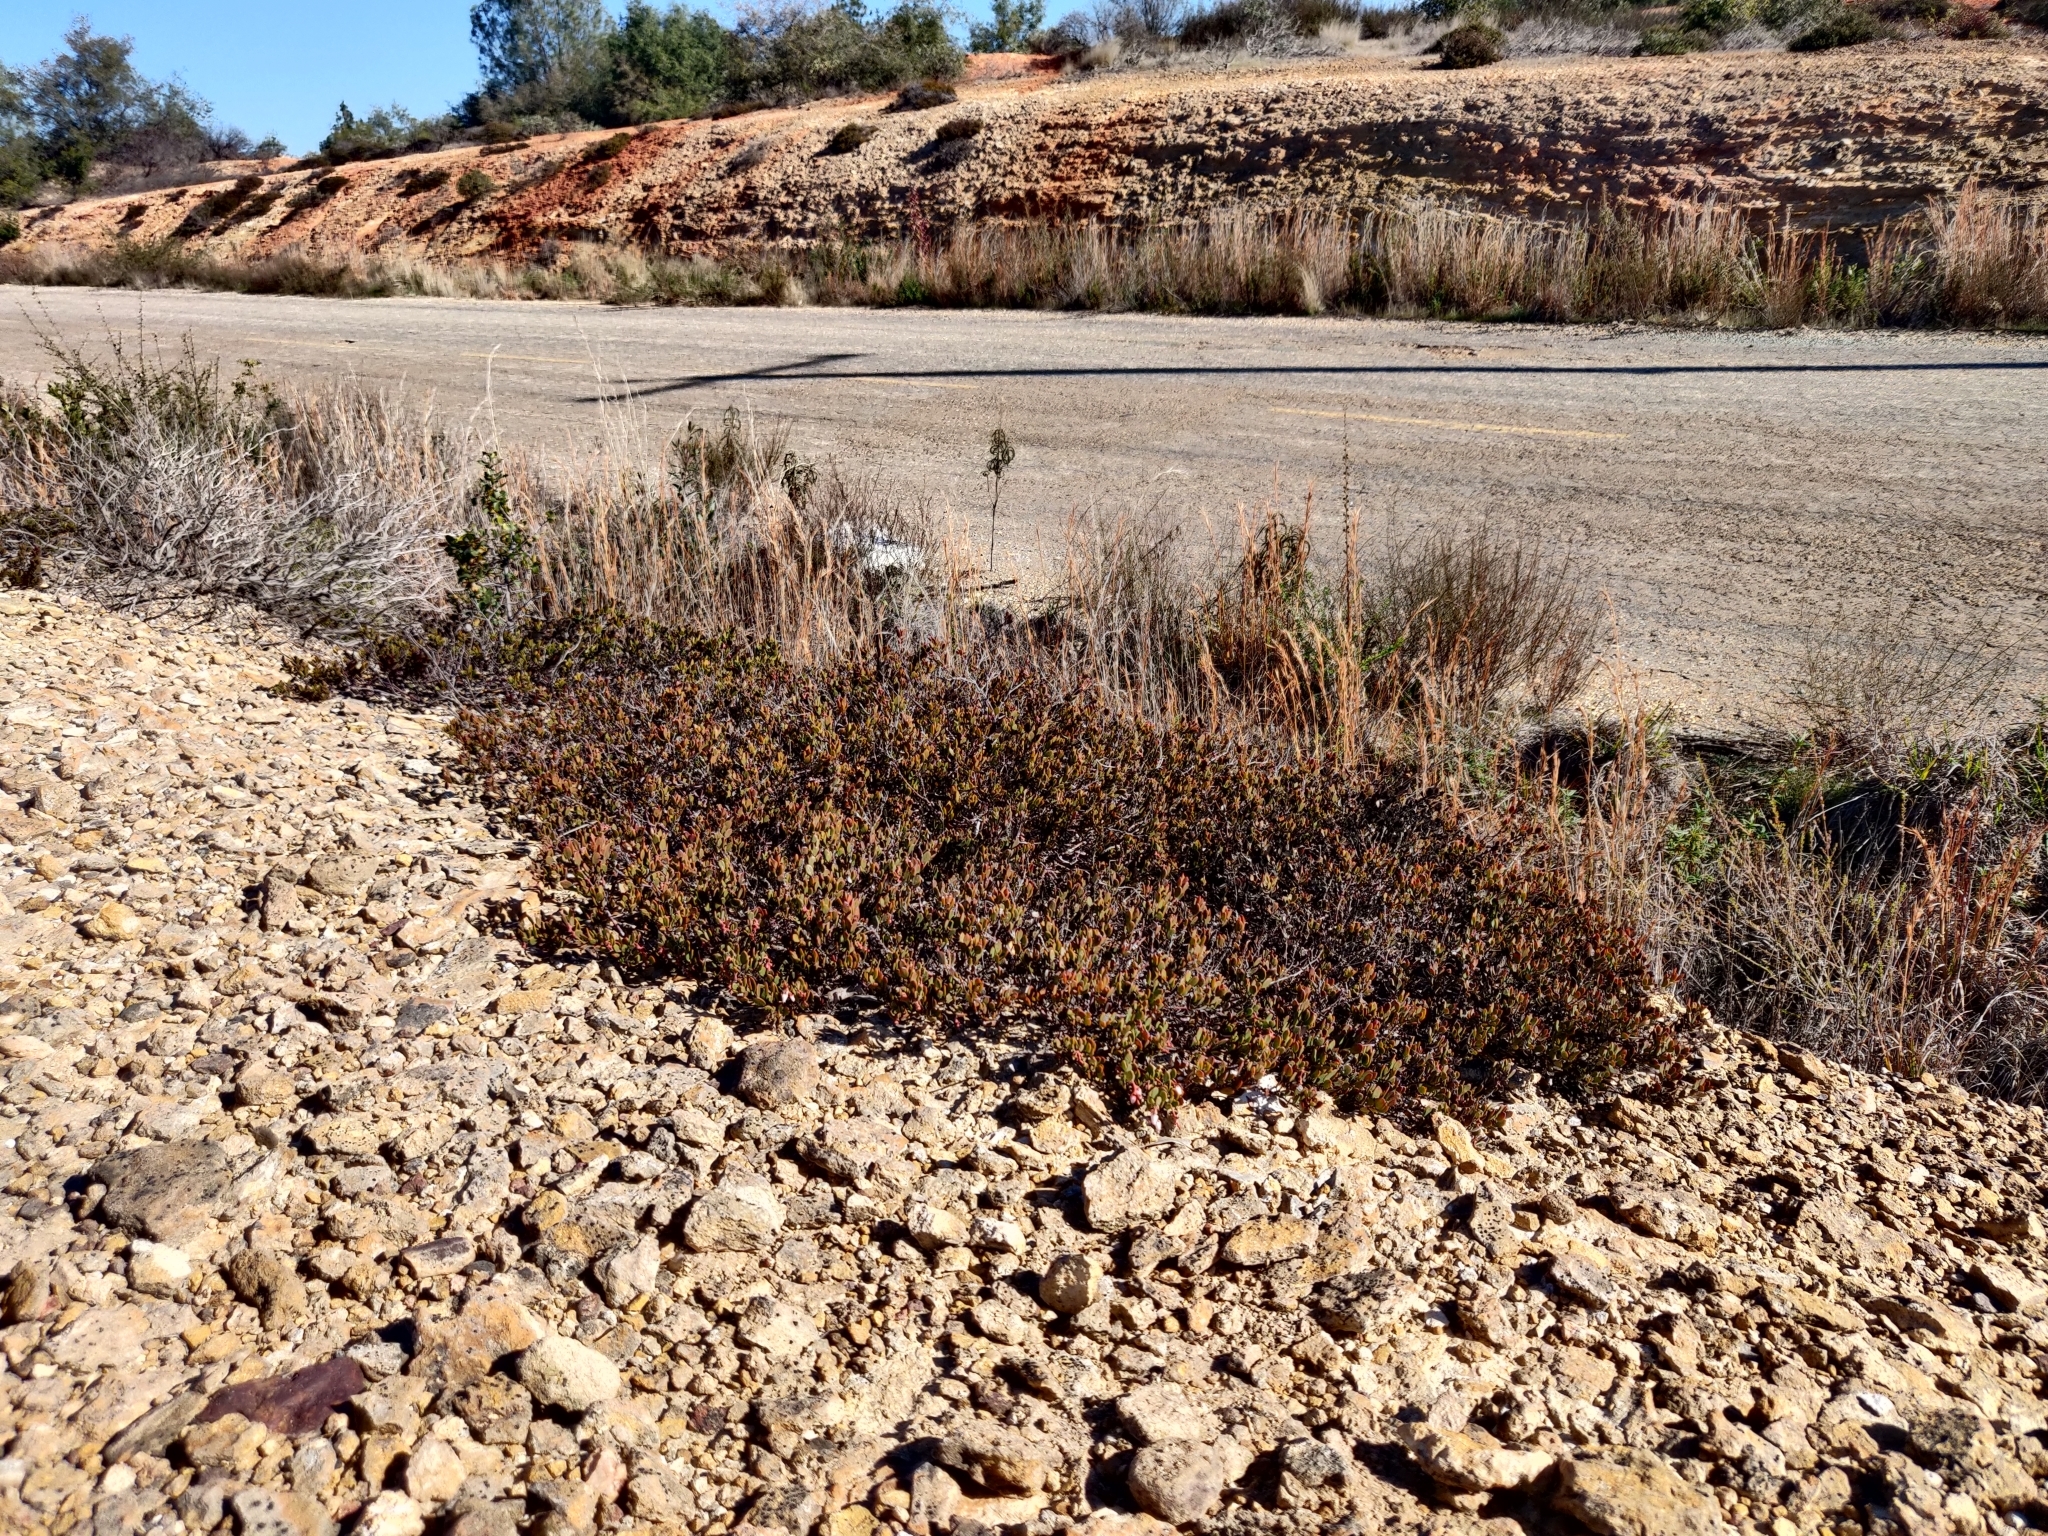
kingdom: Plantae
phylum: Tracheophyta
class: Magnoliopsida
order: Ericales
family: Ericaceae
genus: Arctostaphylos
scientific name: Arctostaphylos myrtifolia
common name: Ione manzanita
